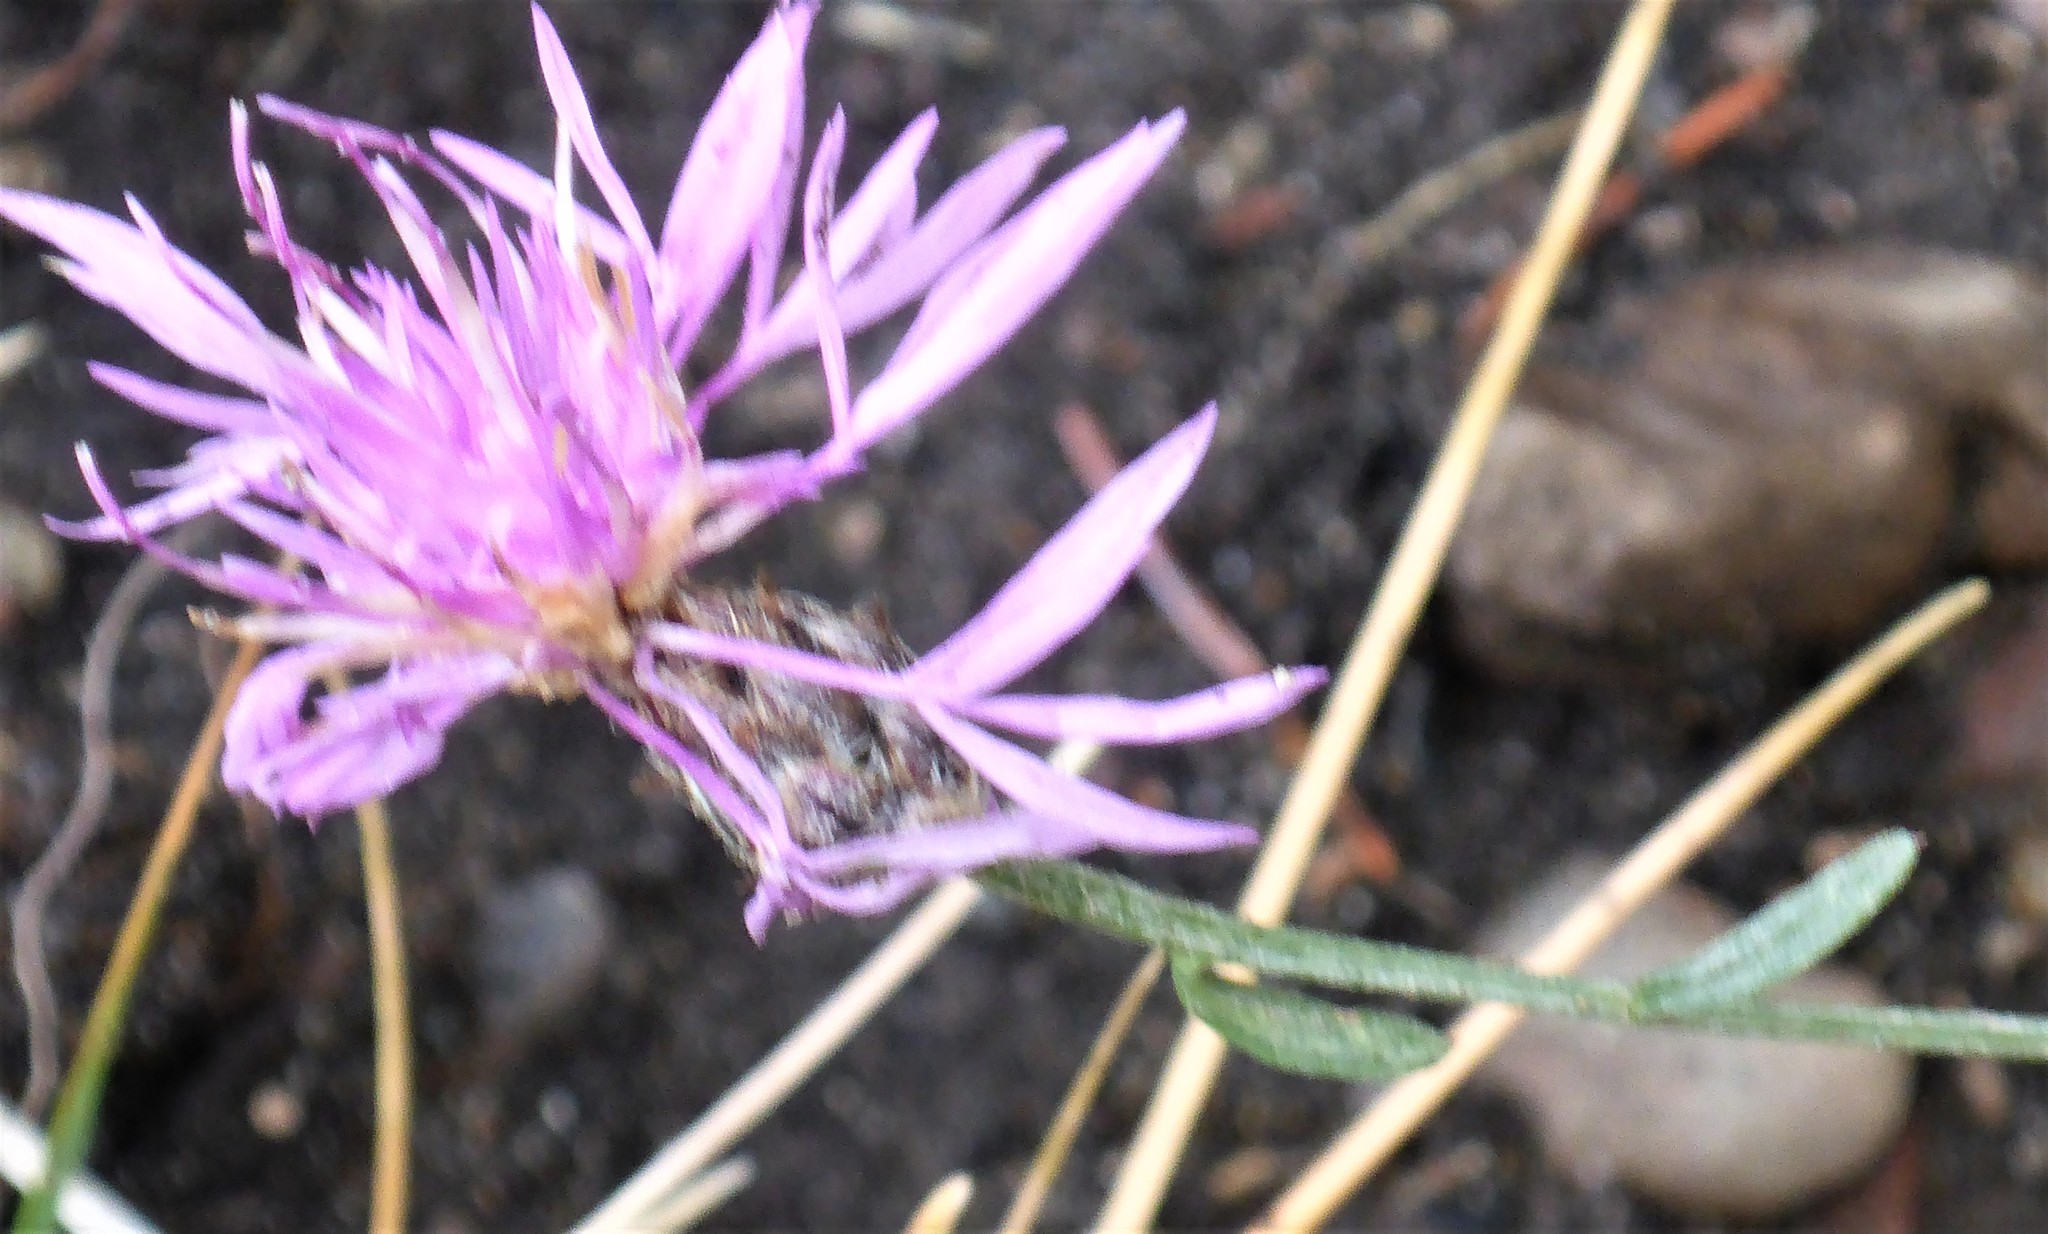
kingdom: Plantae
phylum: Tracheophyta
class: Magnoliopsida
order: Asterales
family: Asteraceae
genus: Centaurea
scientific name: Centaurea stoebe
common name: Spotted knapweed
